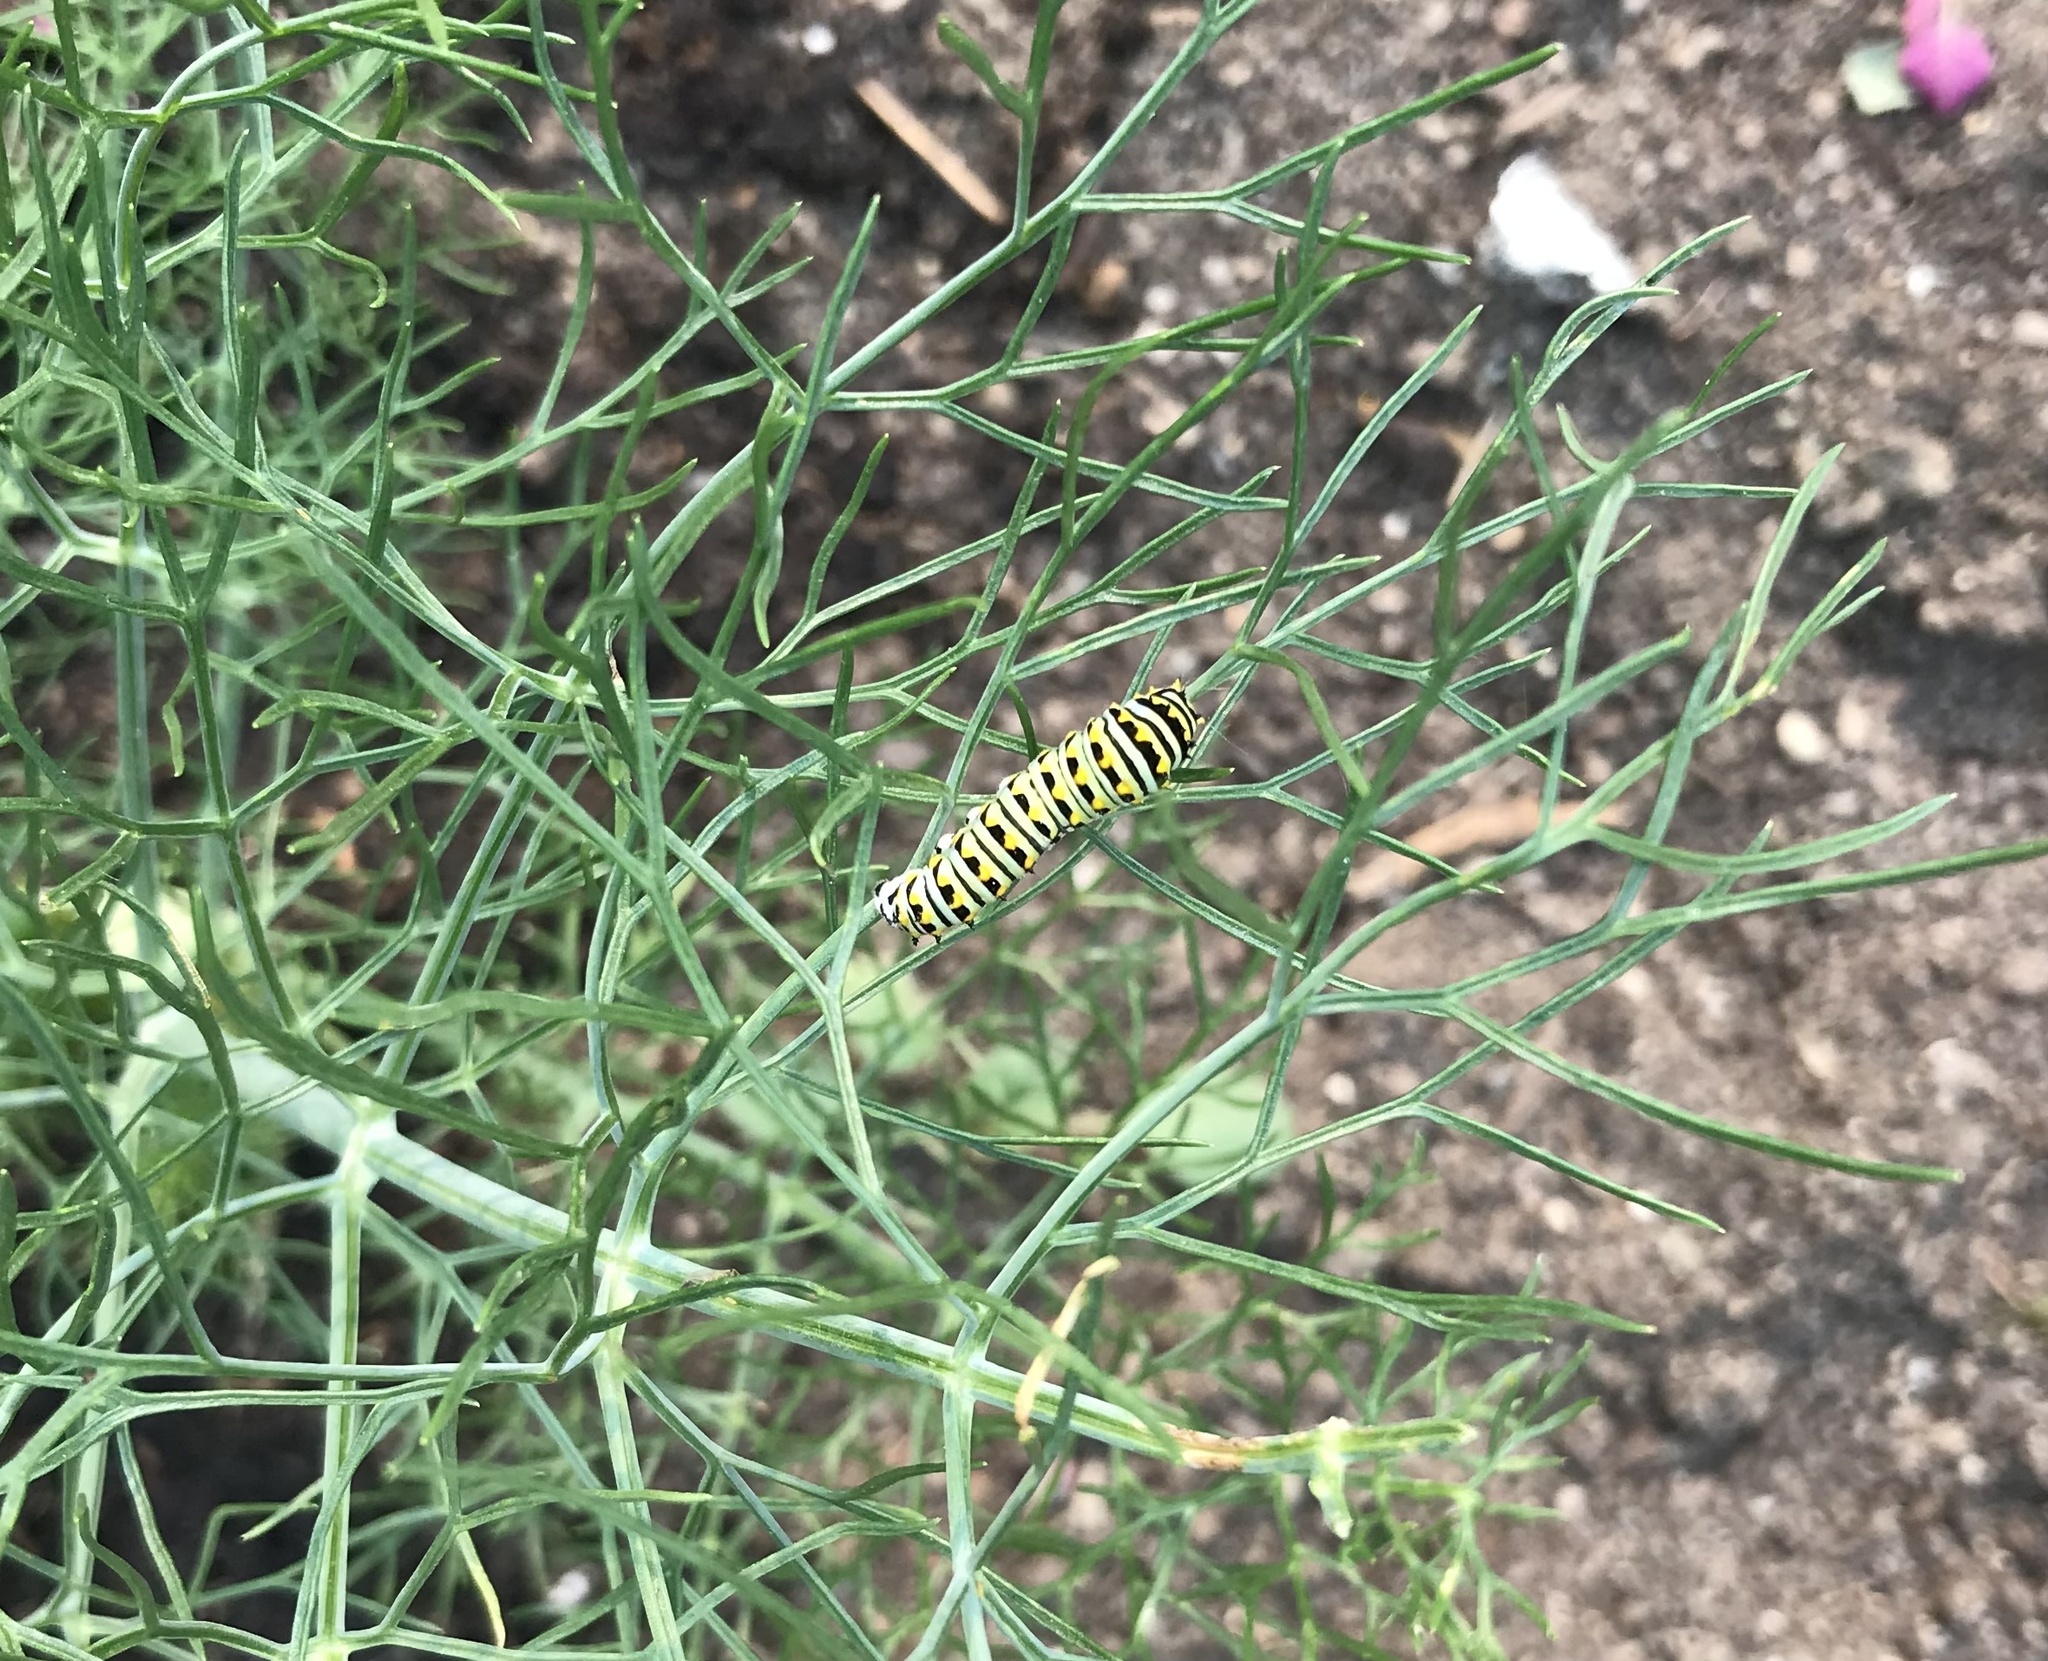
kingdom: Animalia
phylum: Arthropoda
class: Insecta
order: Lepidoptera
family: Papilionidae
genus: Papilio
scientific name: Papilio polyxenes
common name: Black swallowtail
